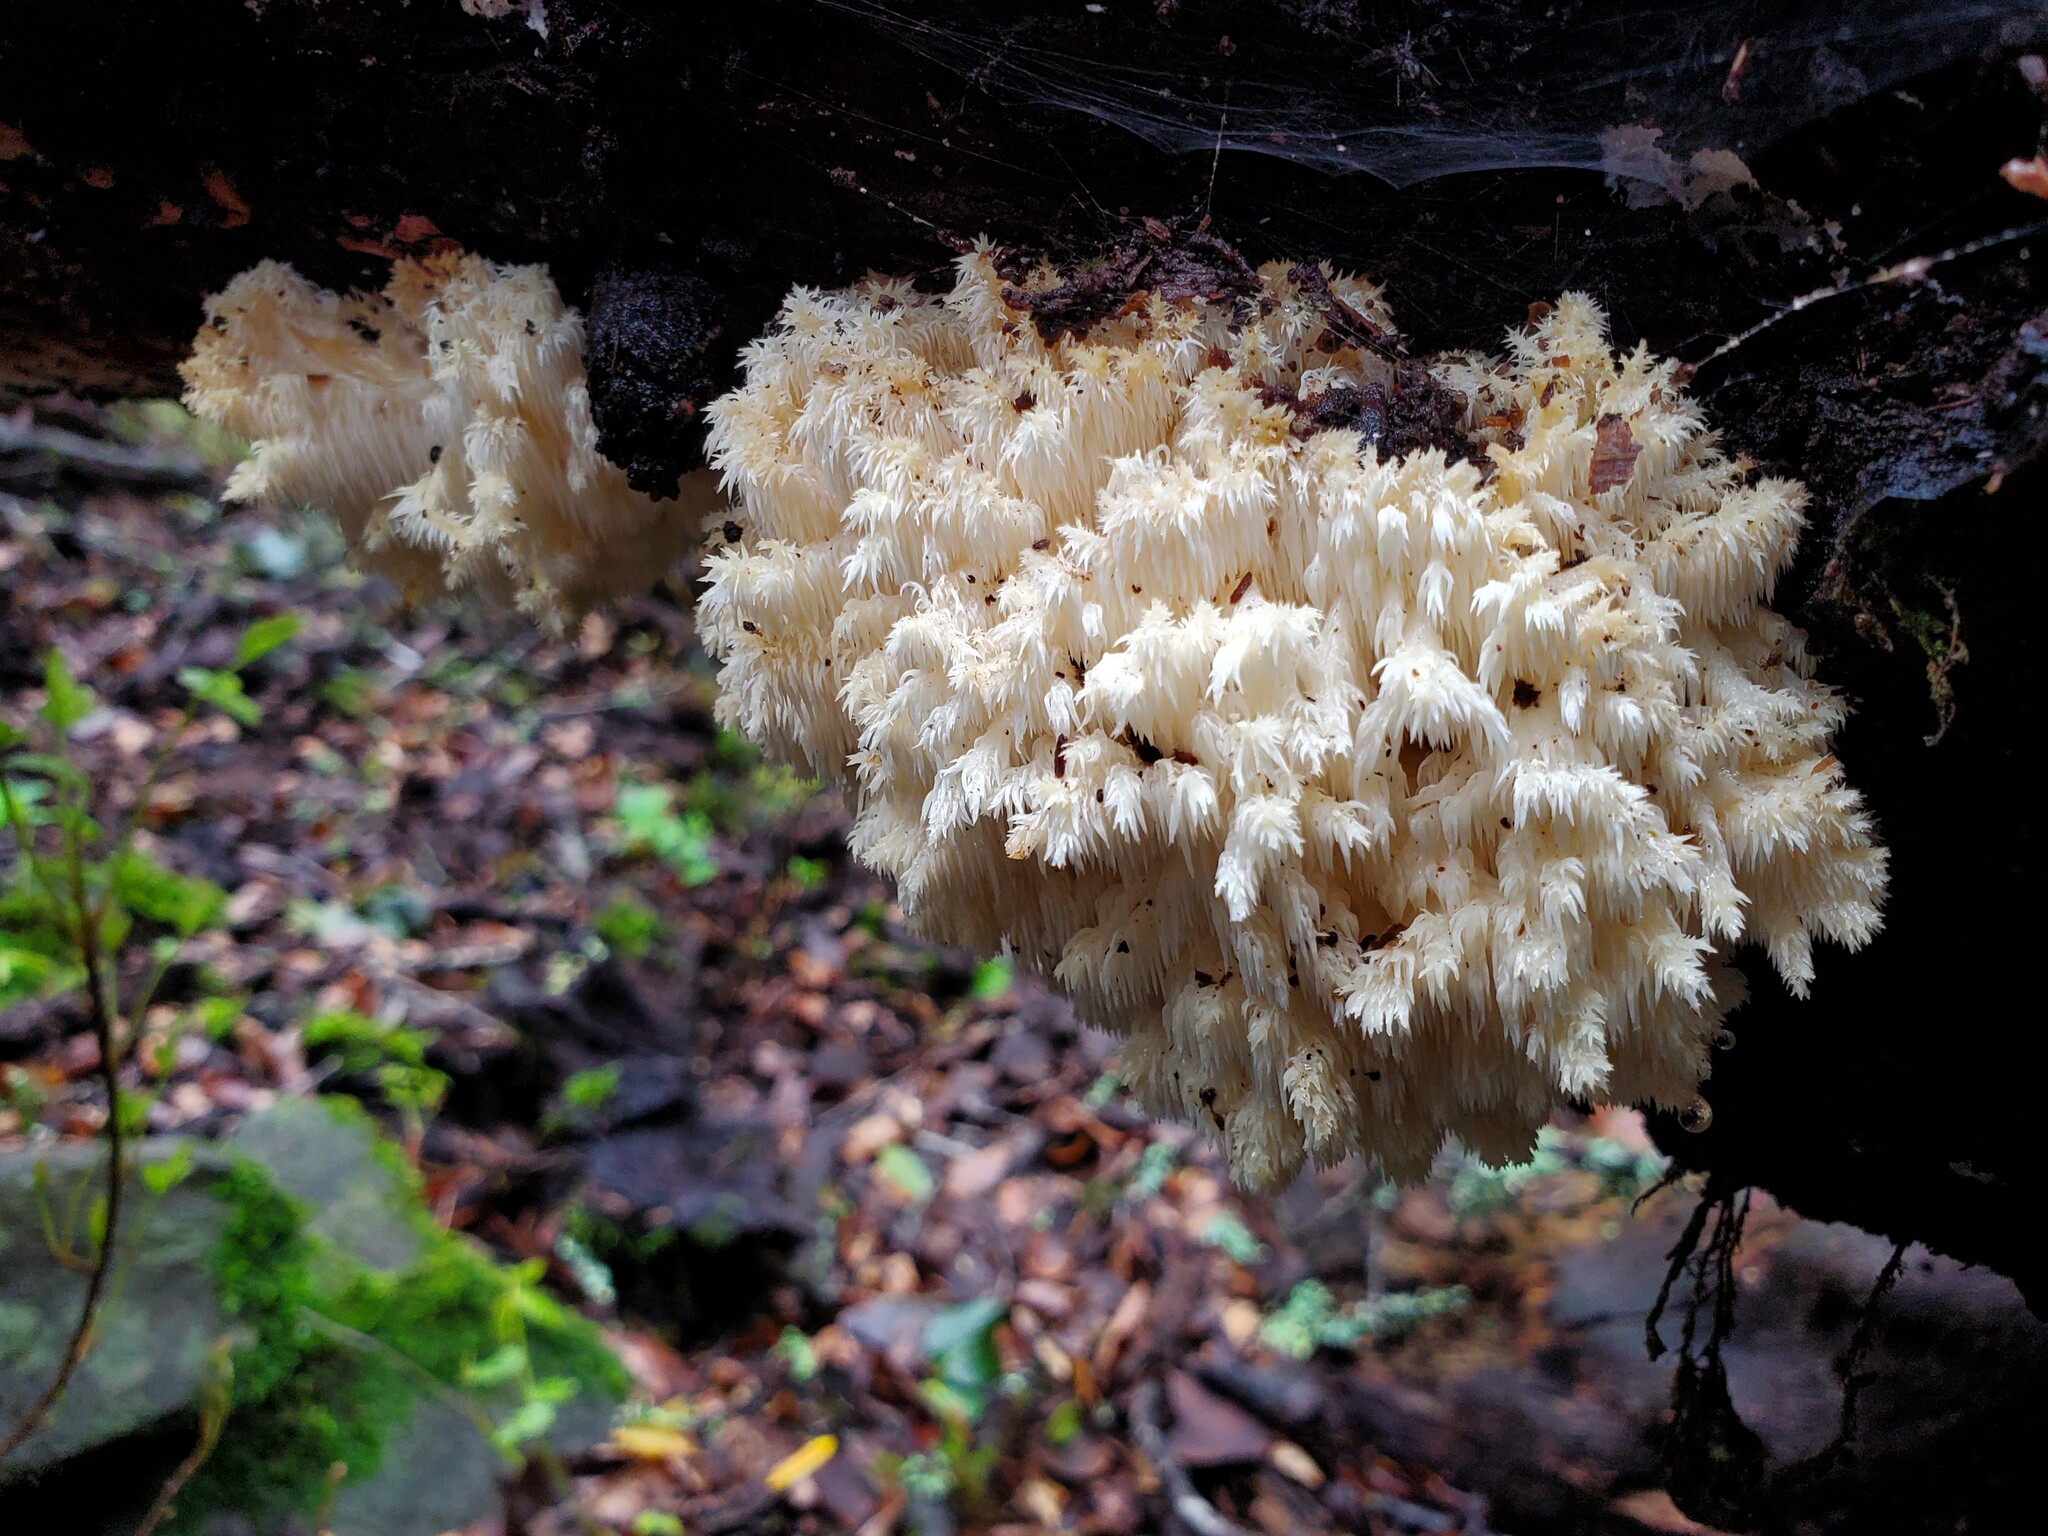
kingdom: Fungi
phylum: Basidiomycota
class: Agaricomycetes
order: Russulales
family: Hericiaceae
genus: Hericium
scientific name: Hericium coralloides
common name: Coral tooth
